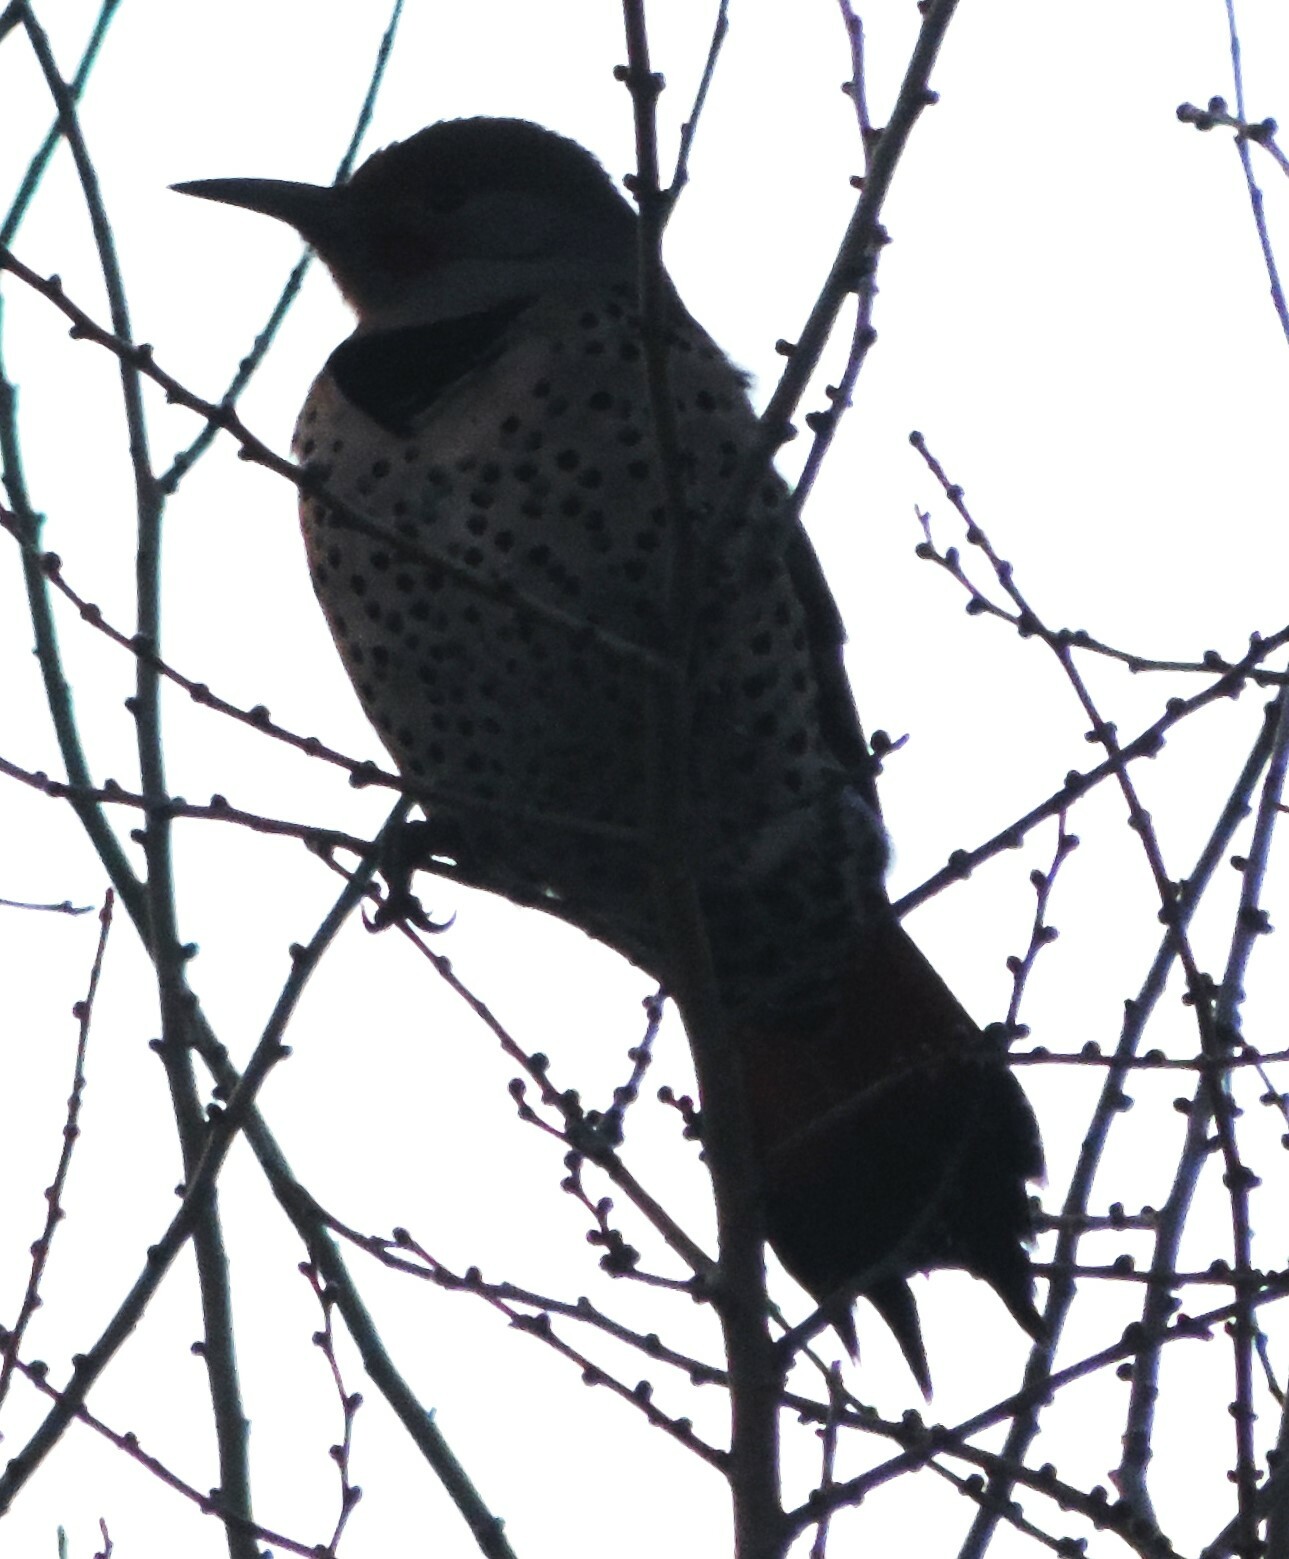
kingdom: Animalia
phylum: Chordata
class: Aves
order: Piciformes
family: Picidae
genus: Colaptes
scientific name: Colaptes auratus
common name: Northern flicker
